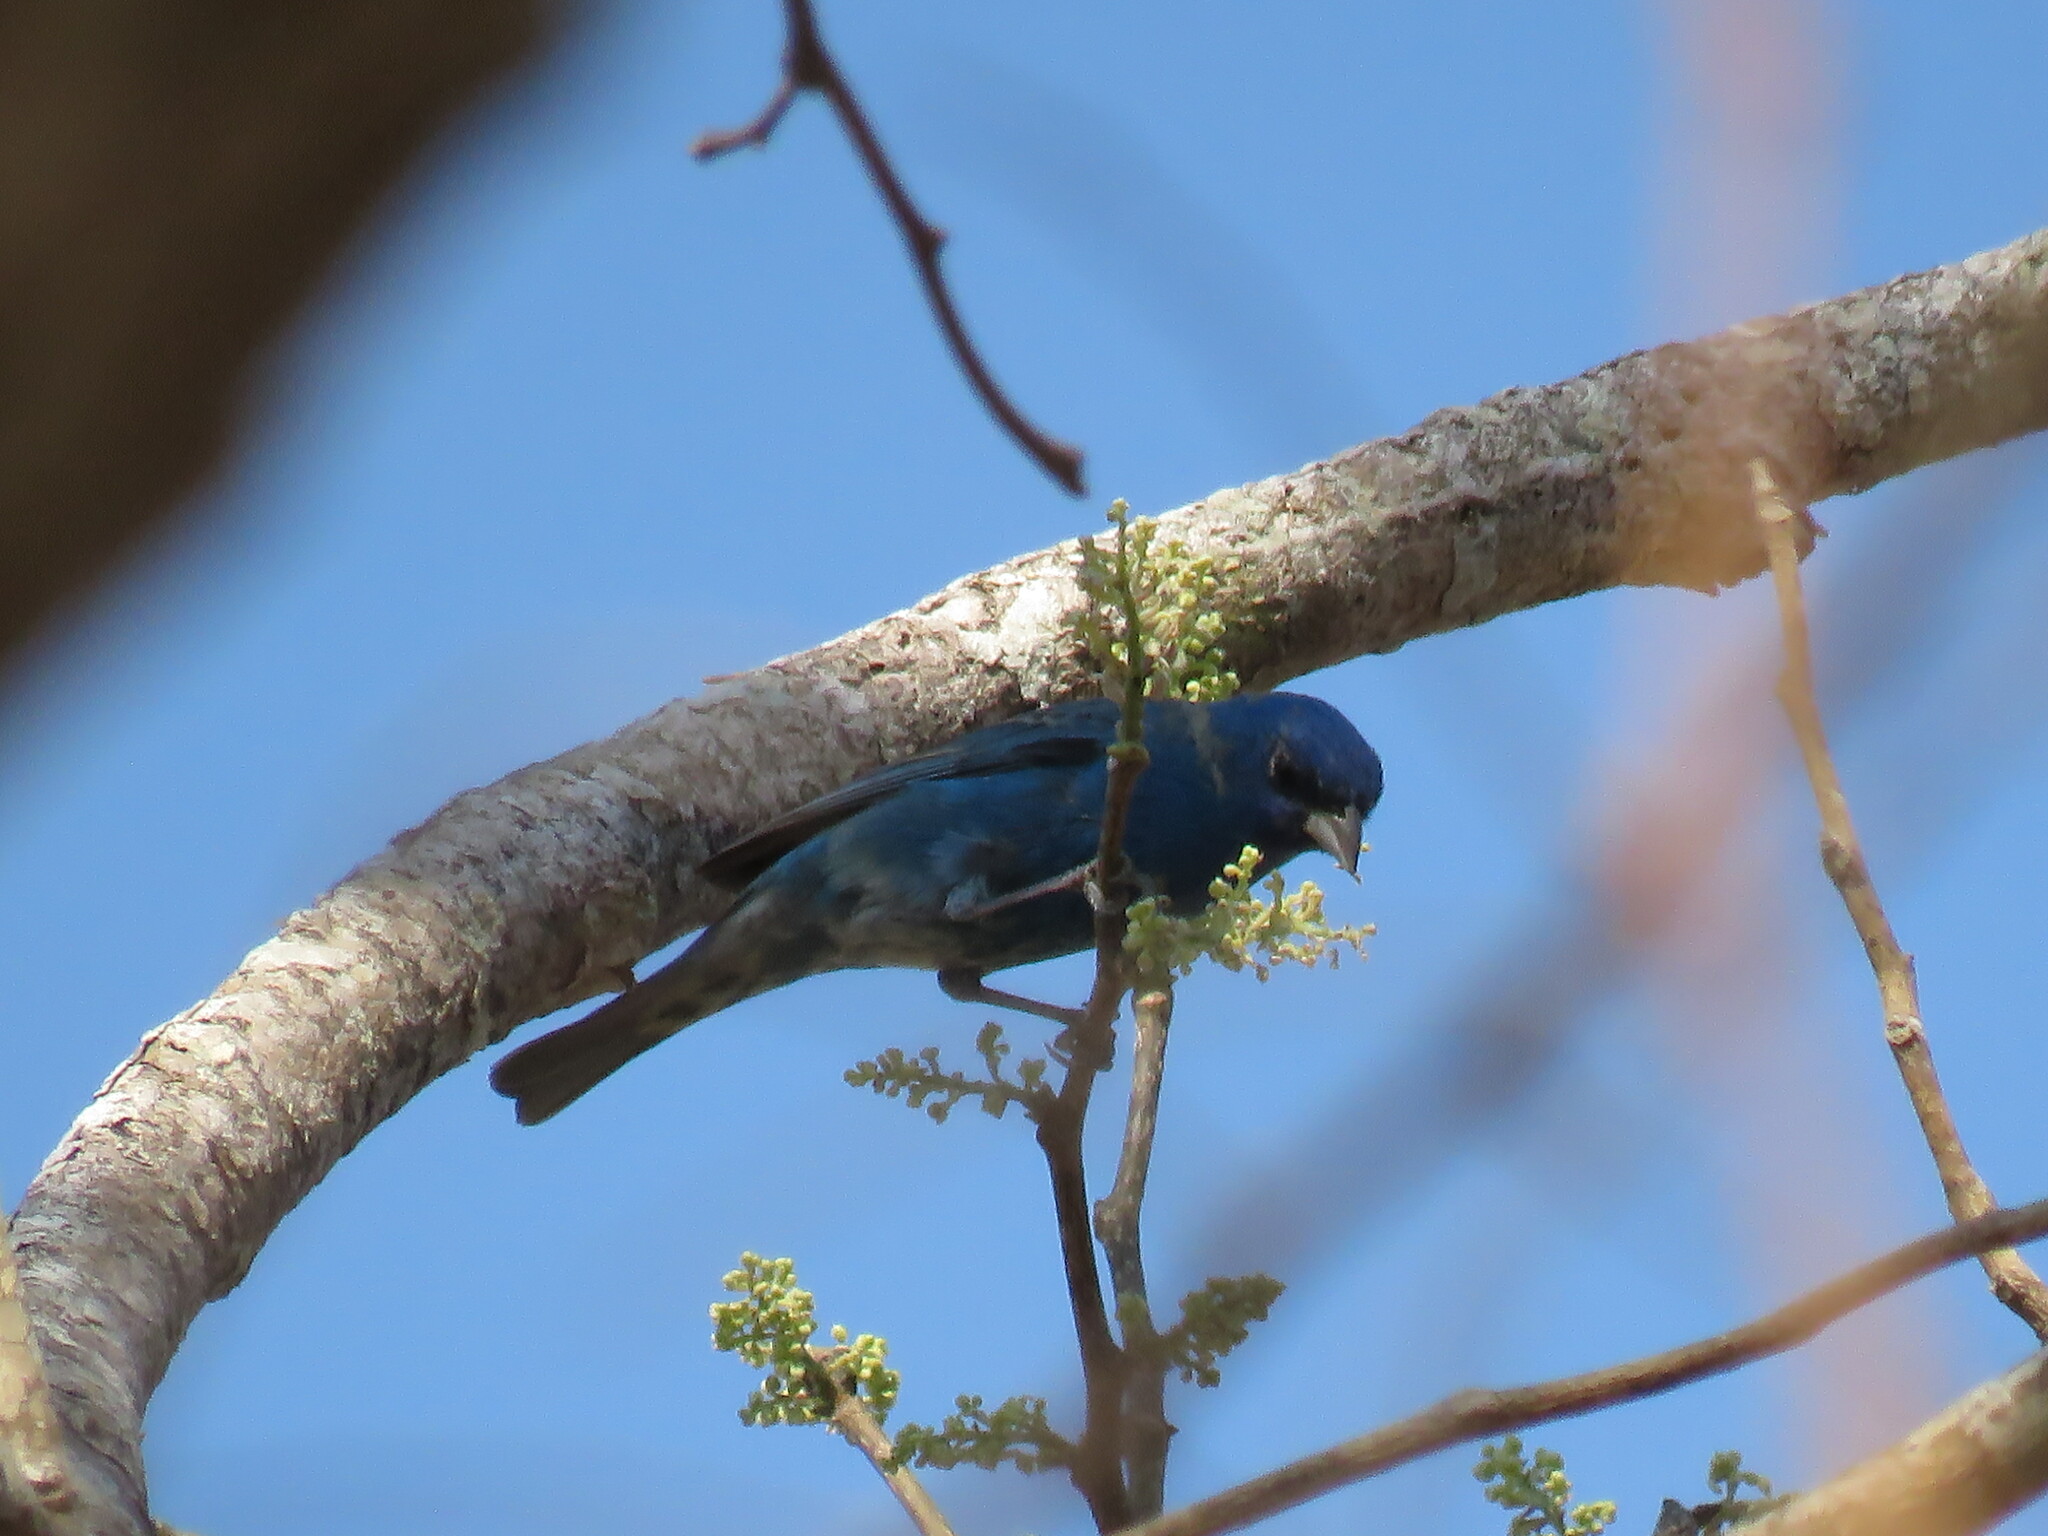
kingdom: Animalia
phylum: Chordata
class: Aves
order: Passeriformes
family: Cardinalidae
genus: Passerina
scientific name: Passerina cyanea
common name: Indigo bunting
